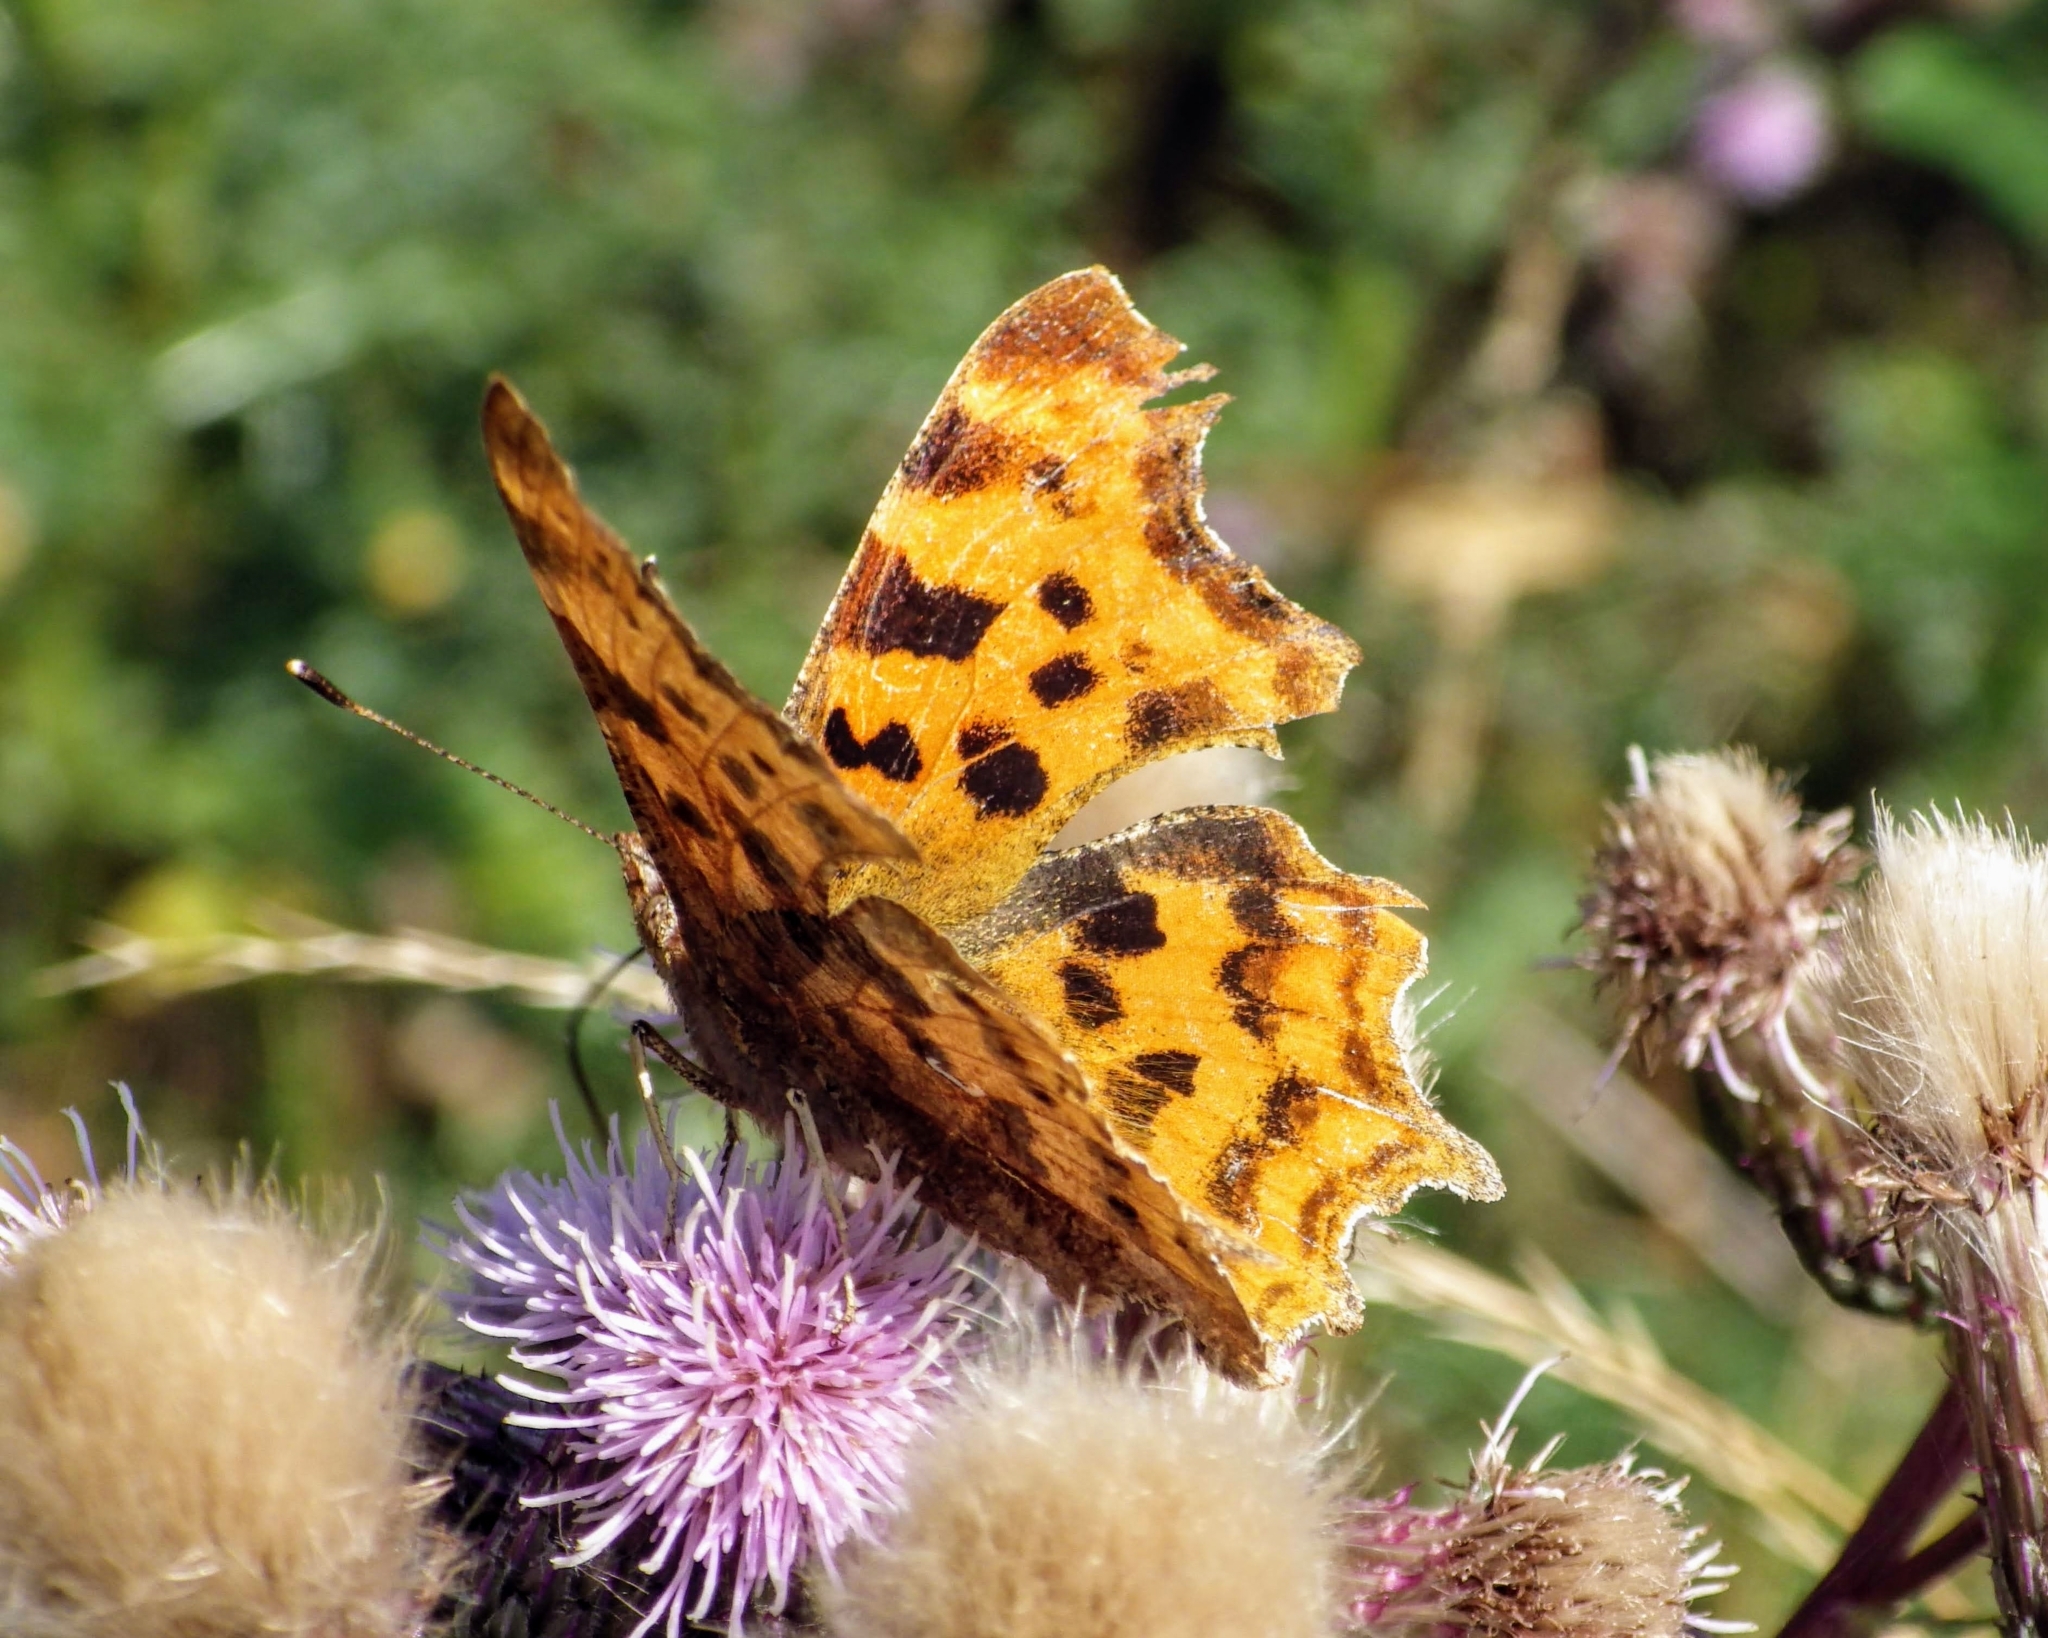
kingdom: Animalia
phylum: Arthropoda
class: Insecta
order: Lepidoptera
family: Nymphalidae
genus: Polygonia
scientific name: Polygonia c-album
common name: Comma
